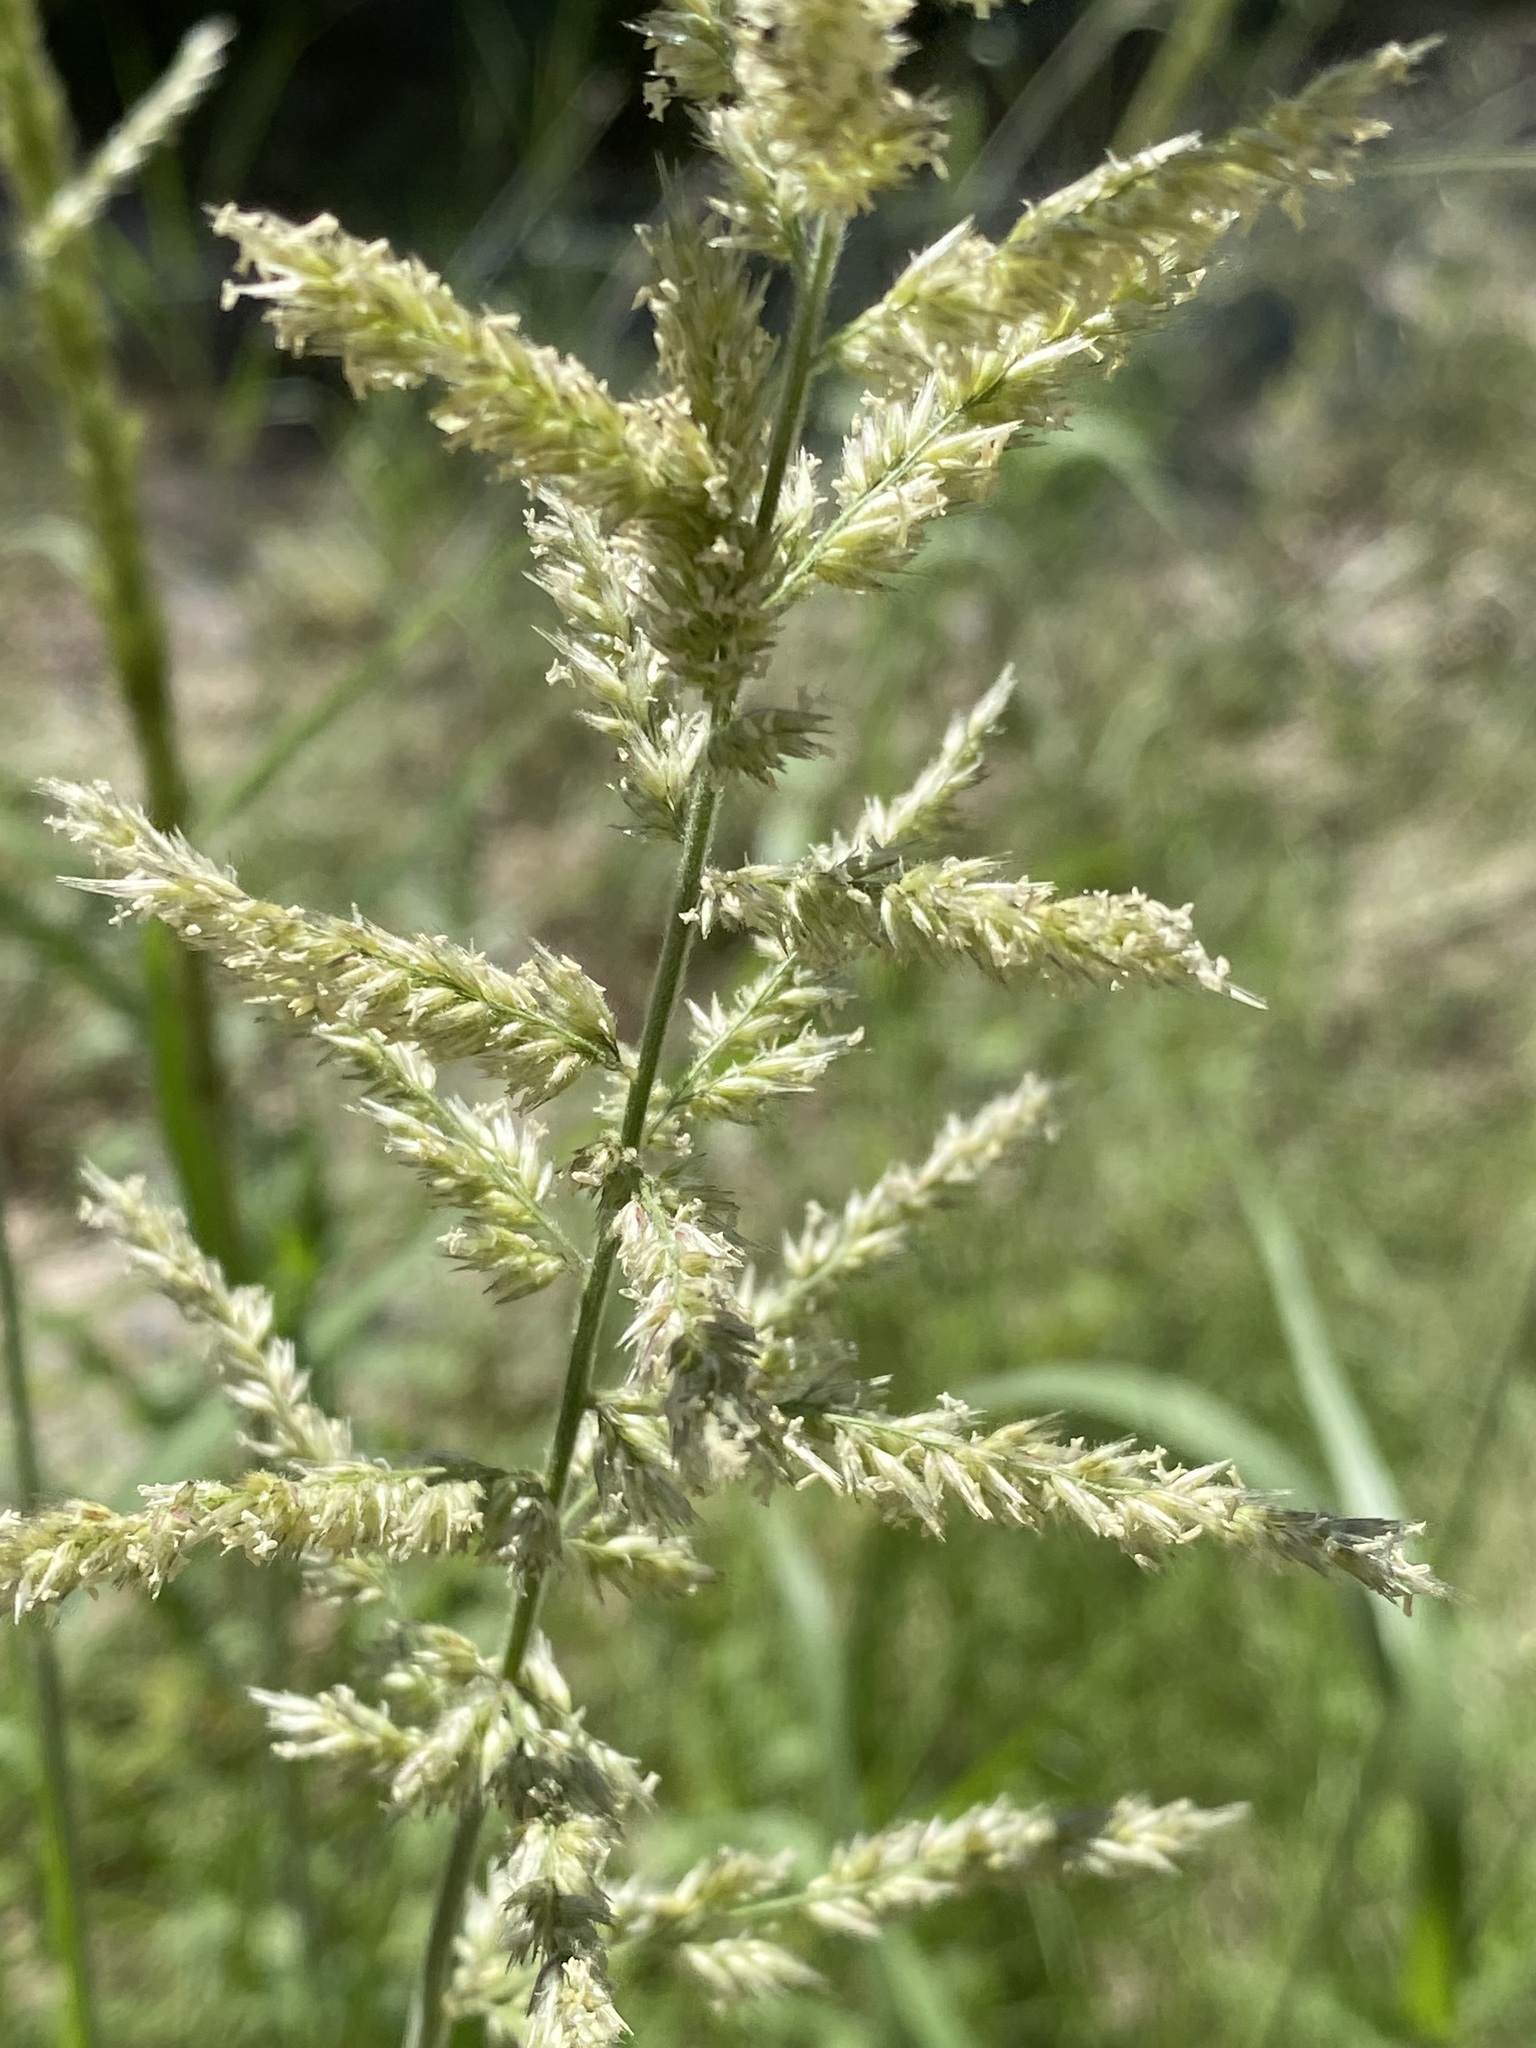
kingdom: Plantae
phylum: Tracheophyta
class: Liliopsida
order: Poales
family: Poaceae
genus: Enneapogon
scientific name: Enneapogon cenchroides
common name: Soft feather pappusgrass
